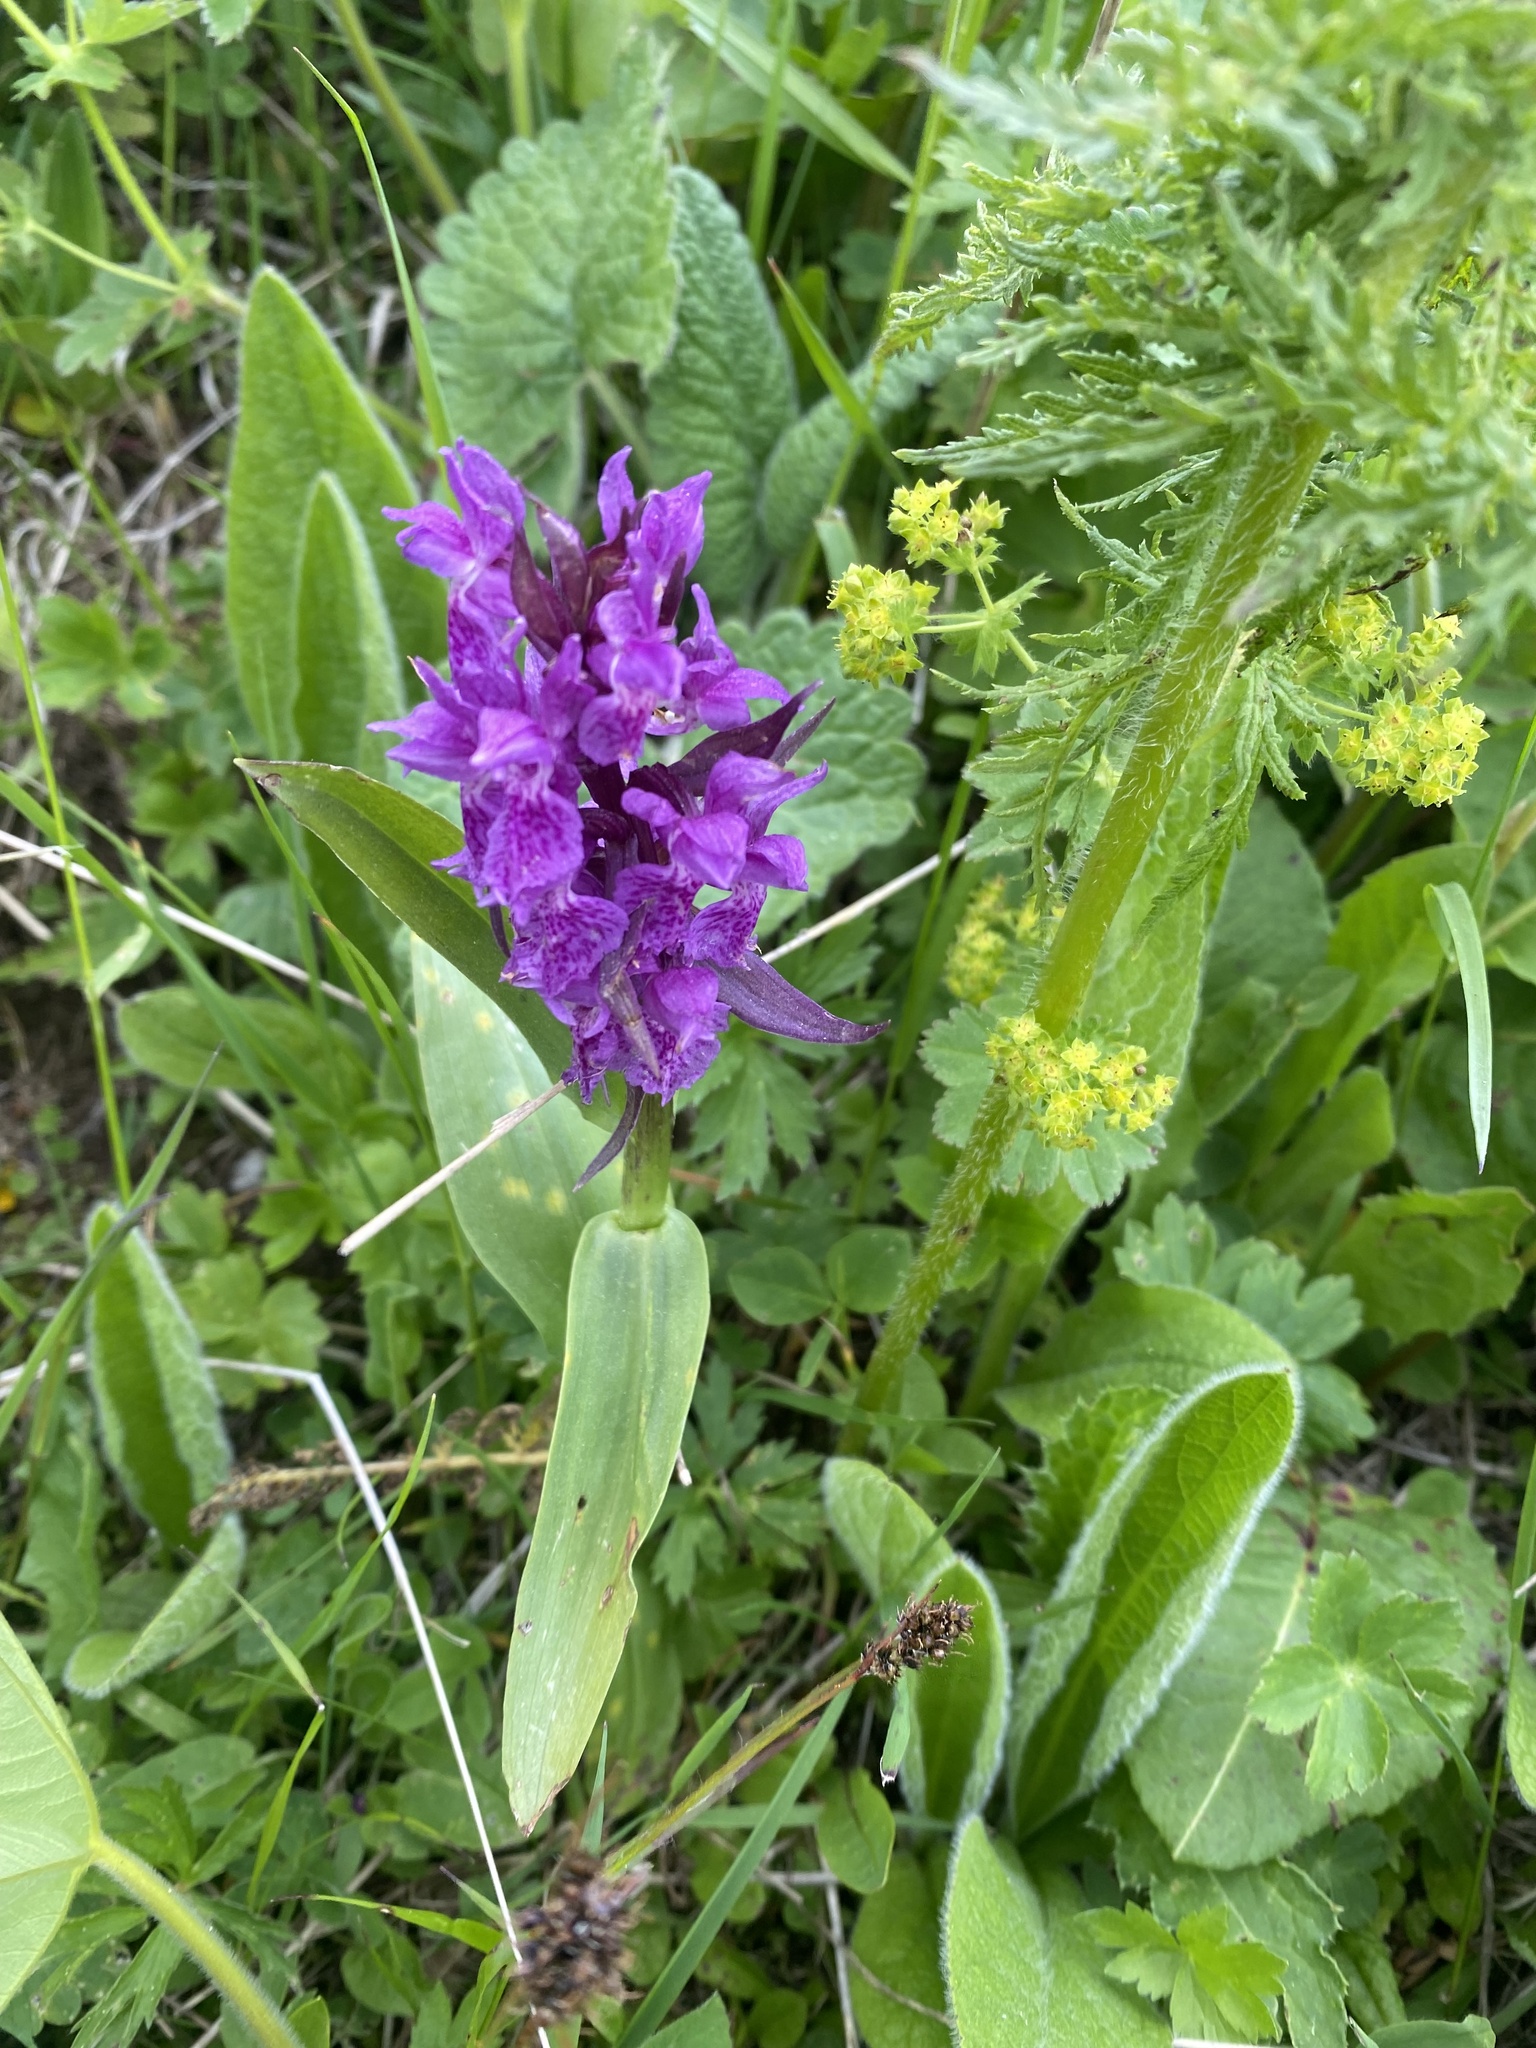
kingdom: Plantae
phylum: Tracheophyta
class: Liliopsida
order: Asparagales
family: Orchidaceae
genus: Dactylorhiza
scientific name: Dactylorhiza euxina
